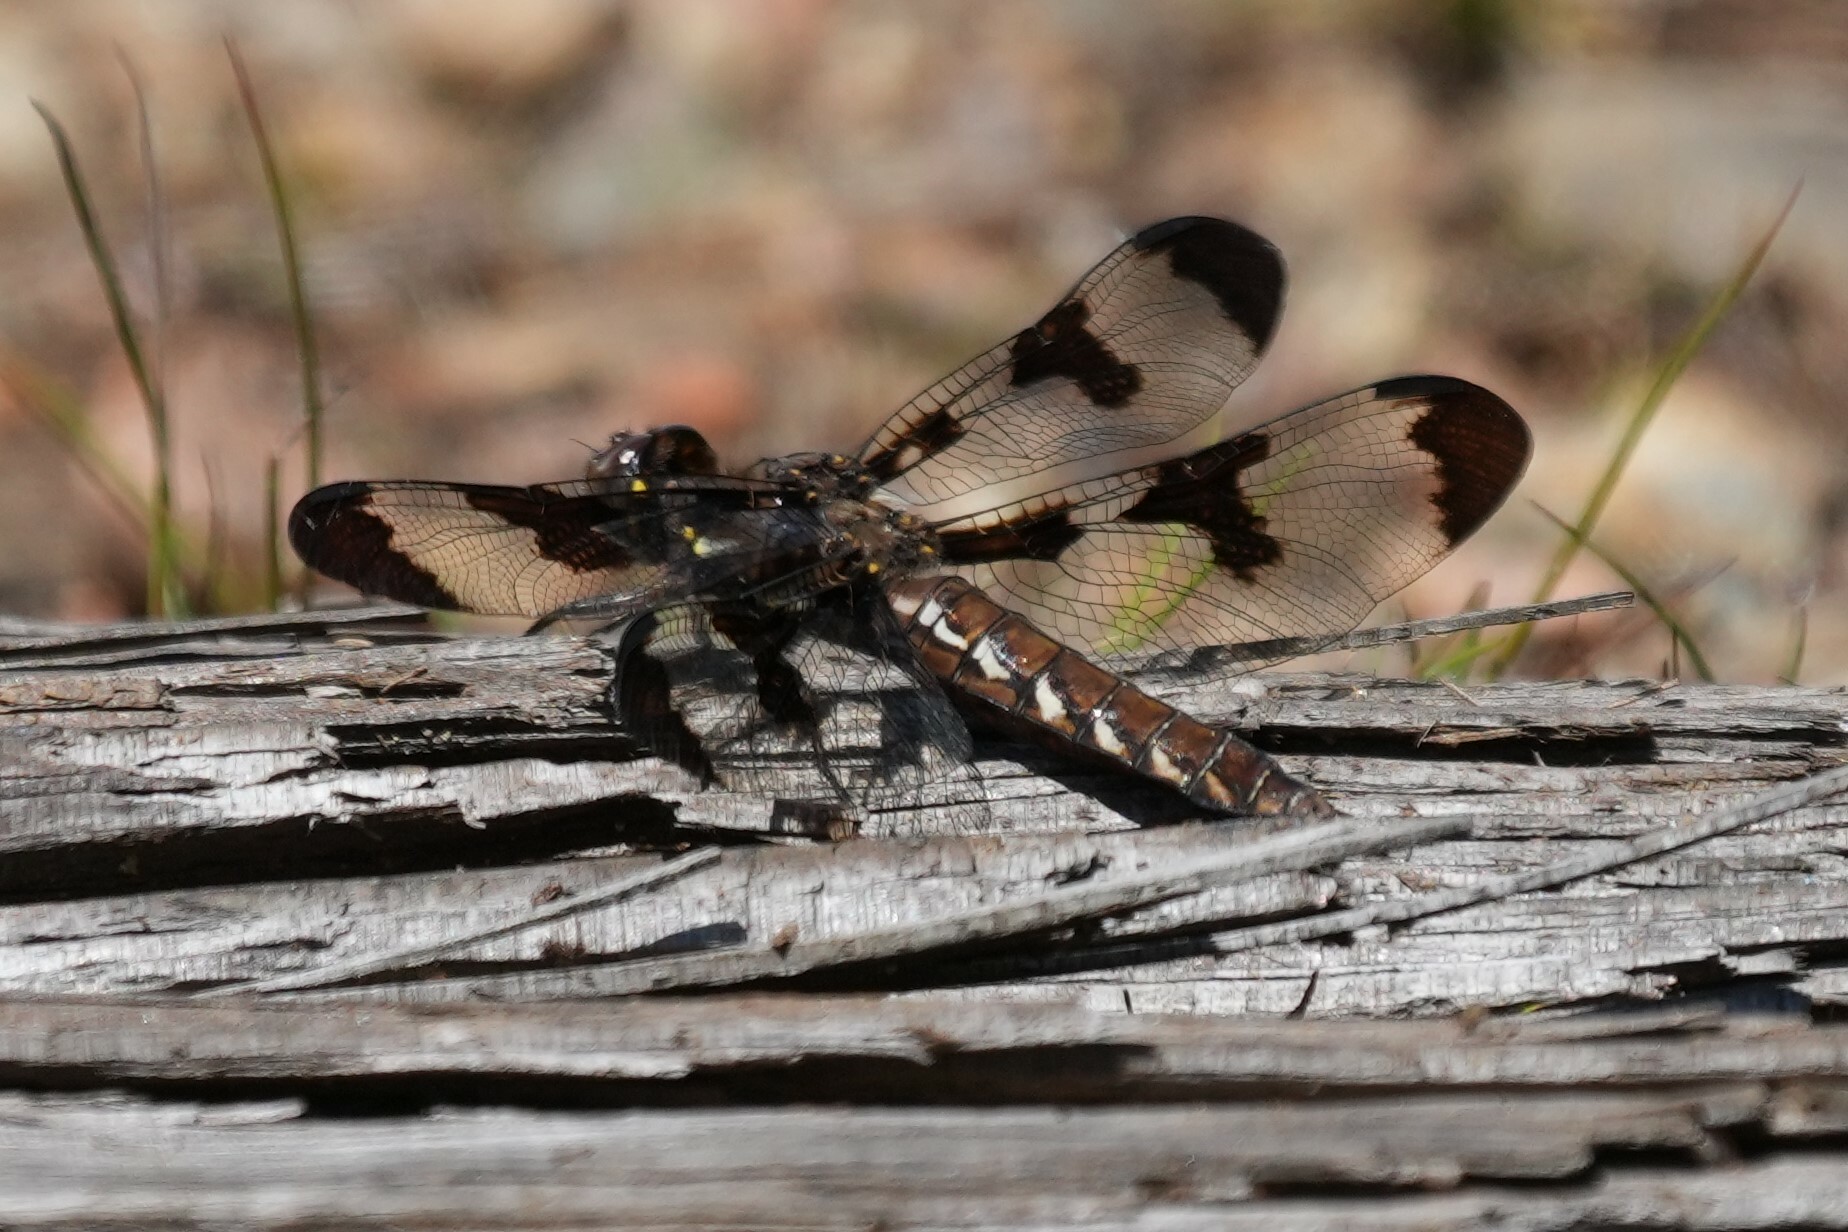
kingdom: Animalia
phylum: Arthropoda
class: Insecta
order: Odonata
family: Libellulidae
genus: Plathemis
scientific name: Plathemis lydia
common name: Common whitetail
